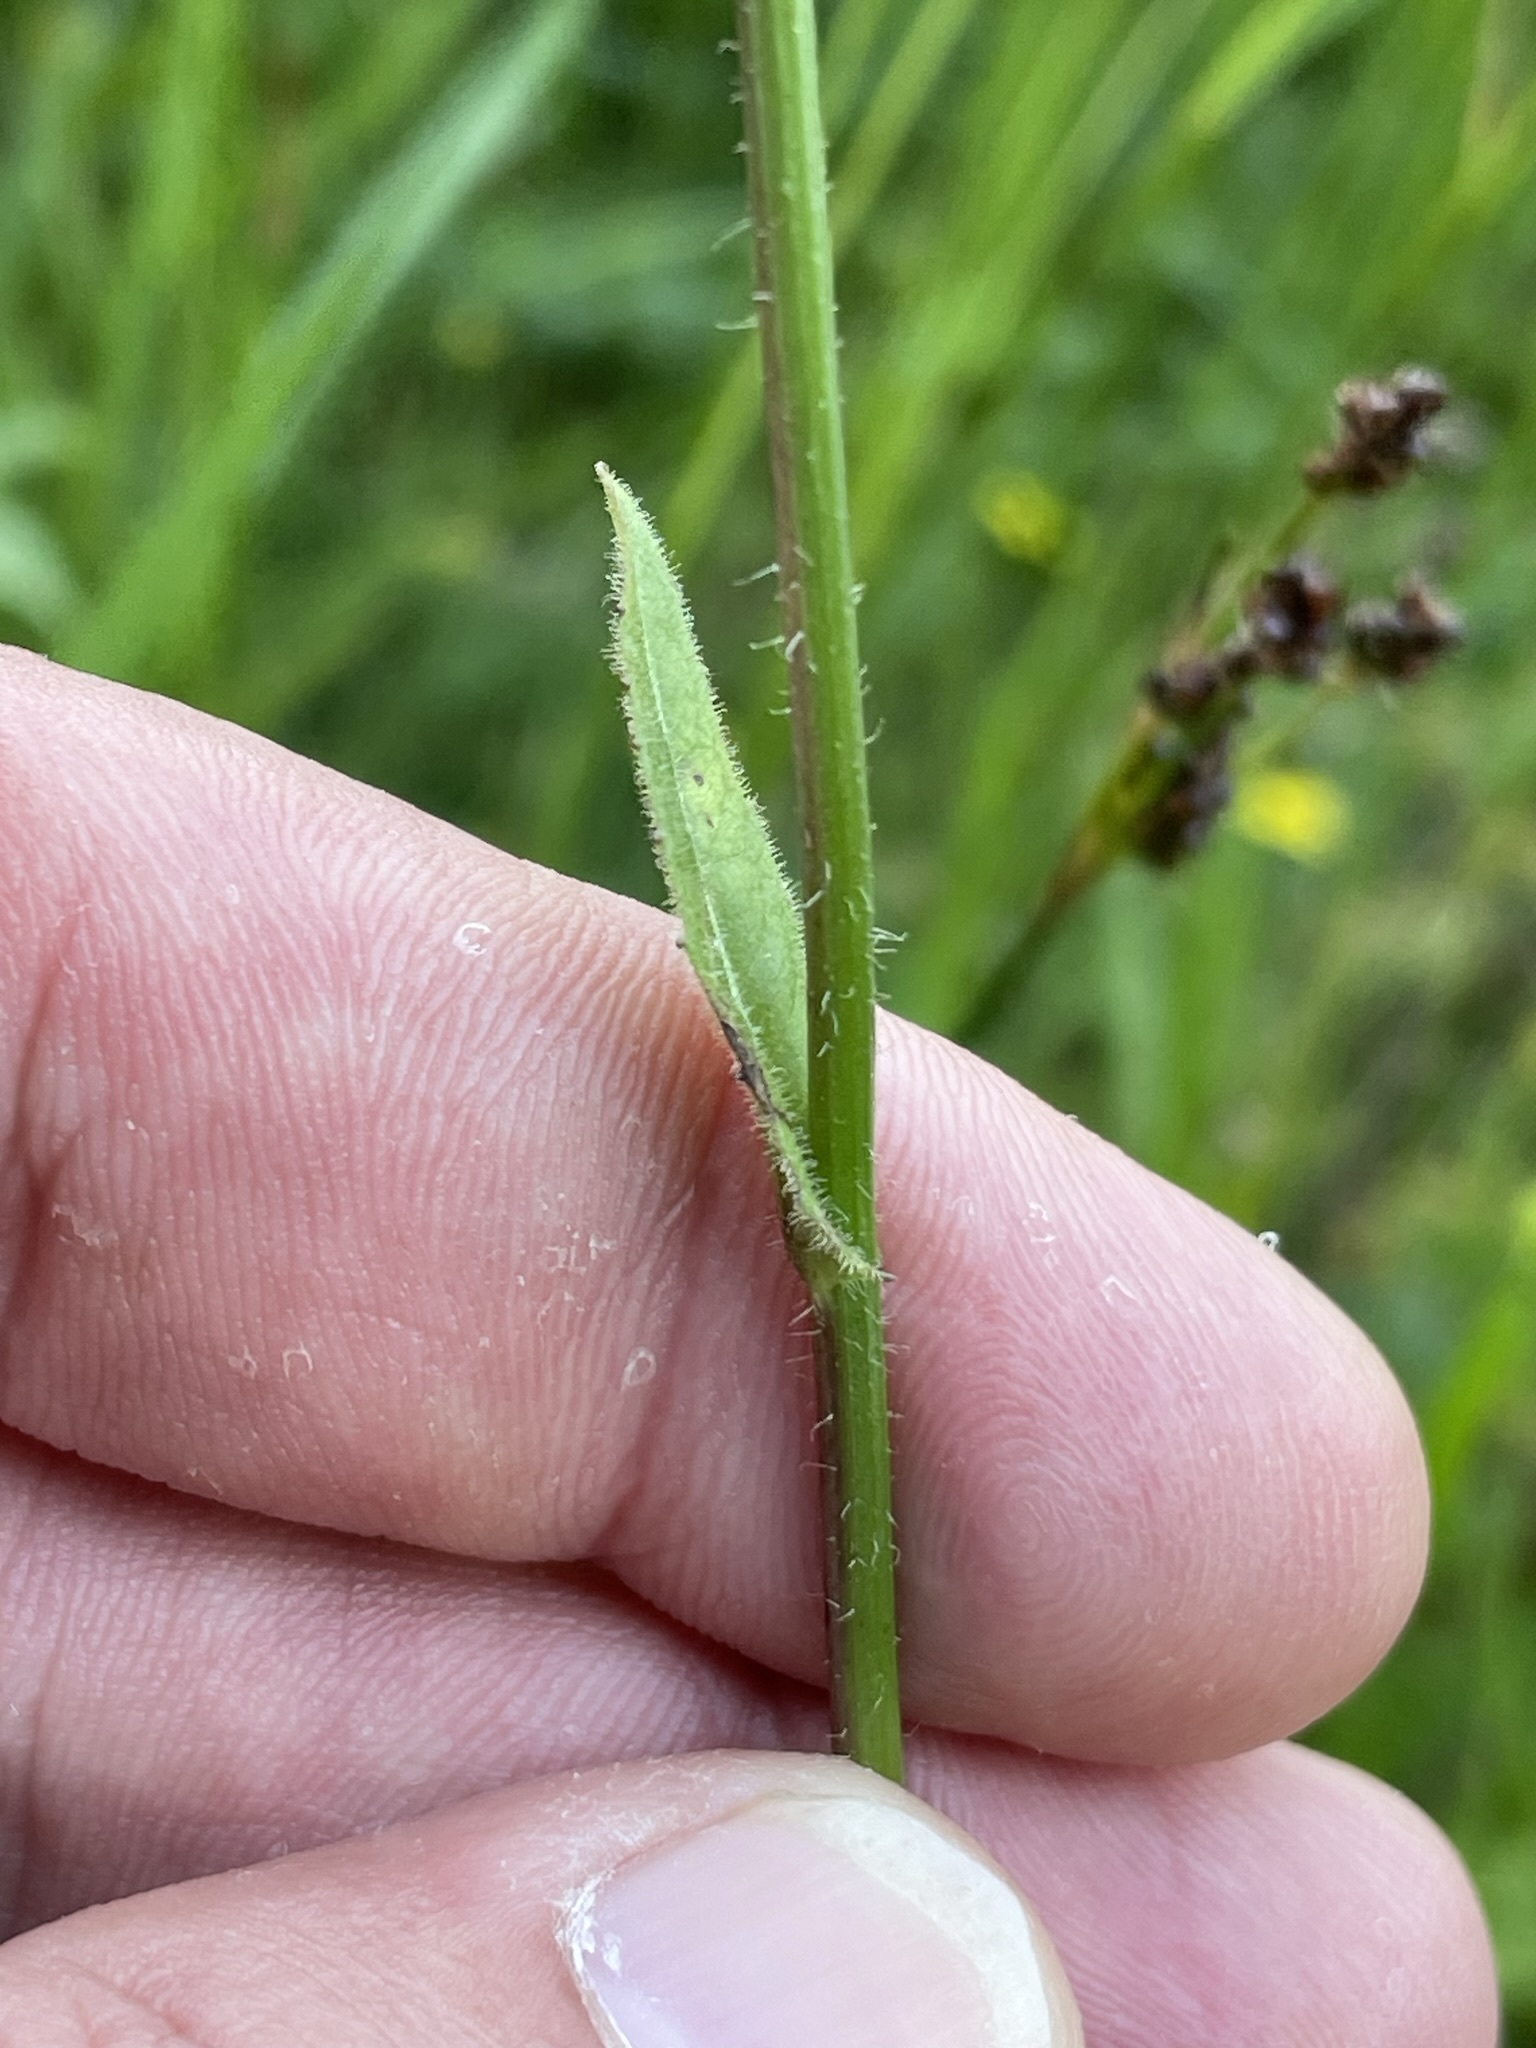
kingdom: Plantae
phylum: Tracheophyta
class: Magnoliopsida
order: Asterales
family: Asteraceae
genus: Crepis
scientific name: Crepis mollis
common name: Northern hawk's-beard
